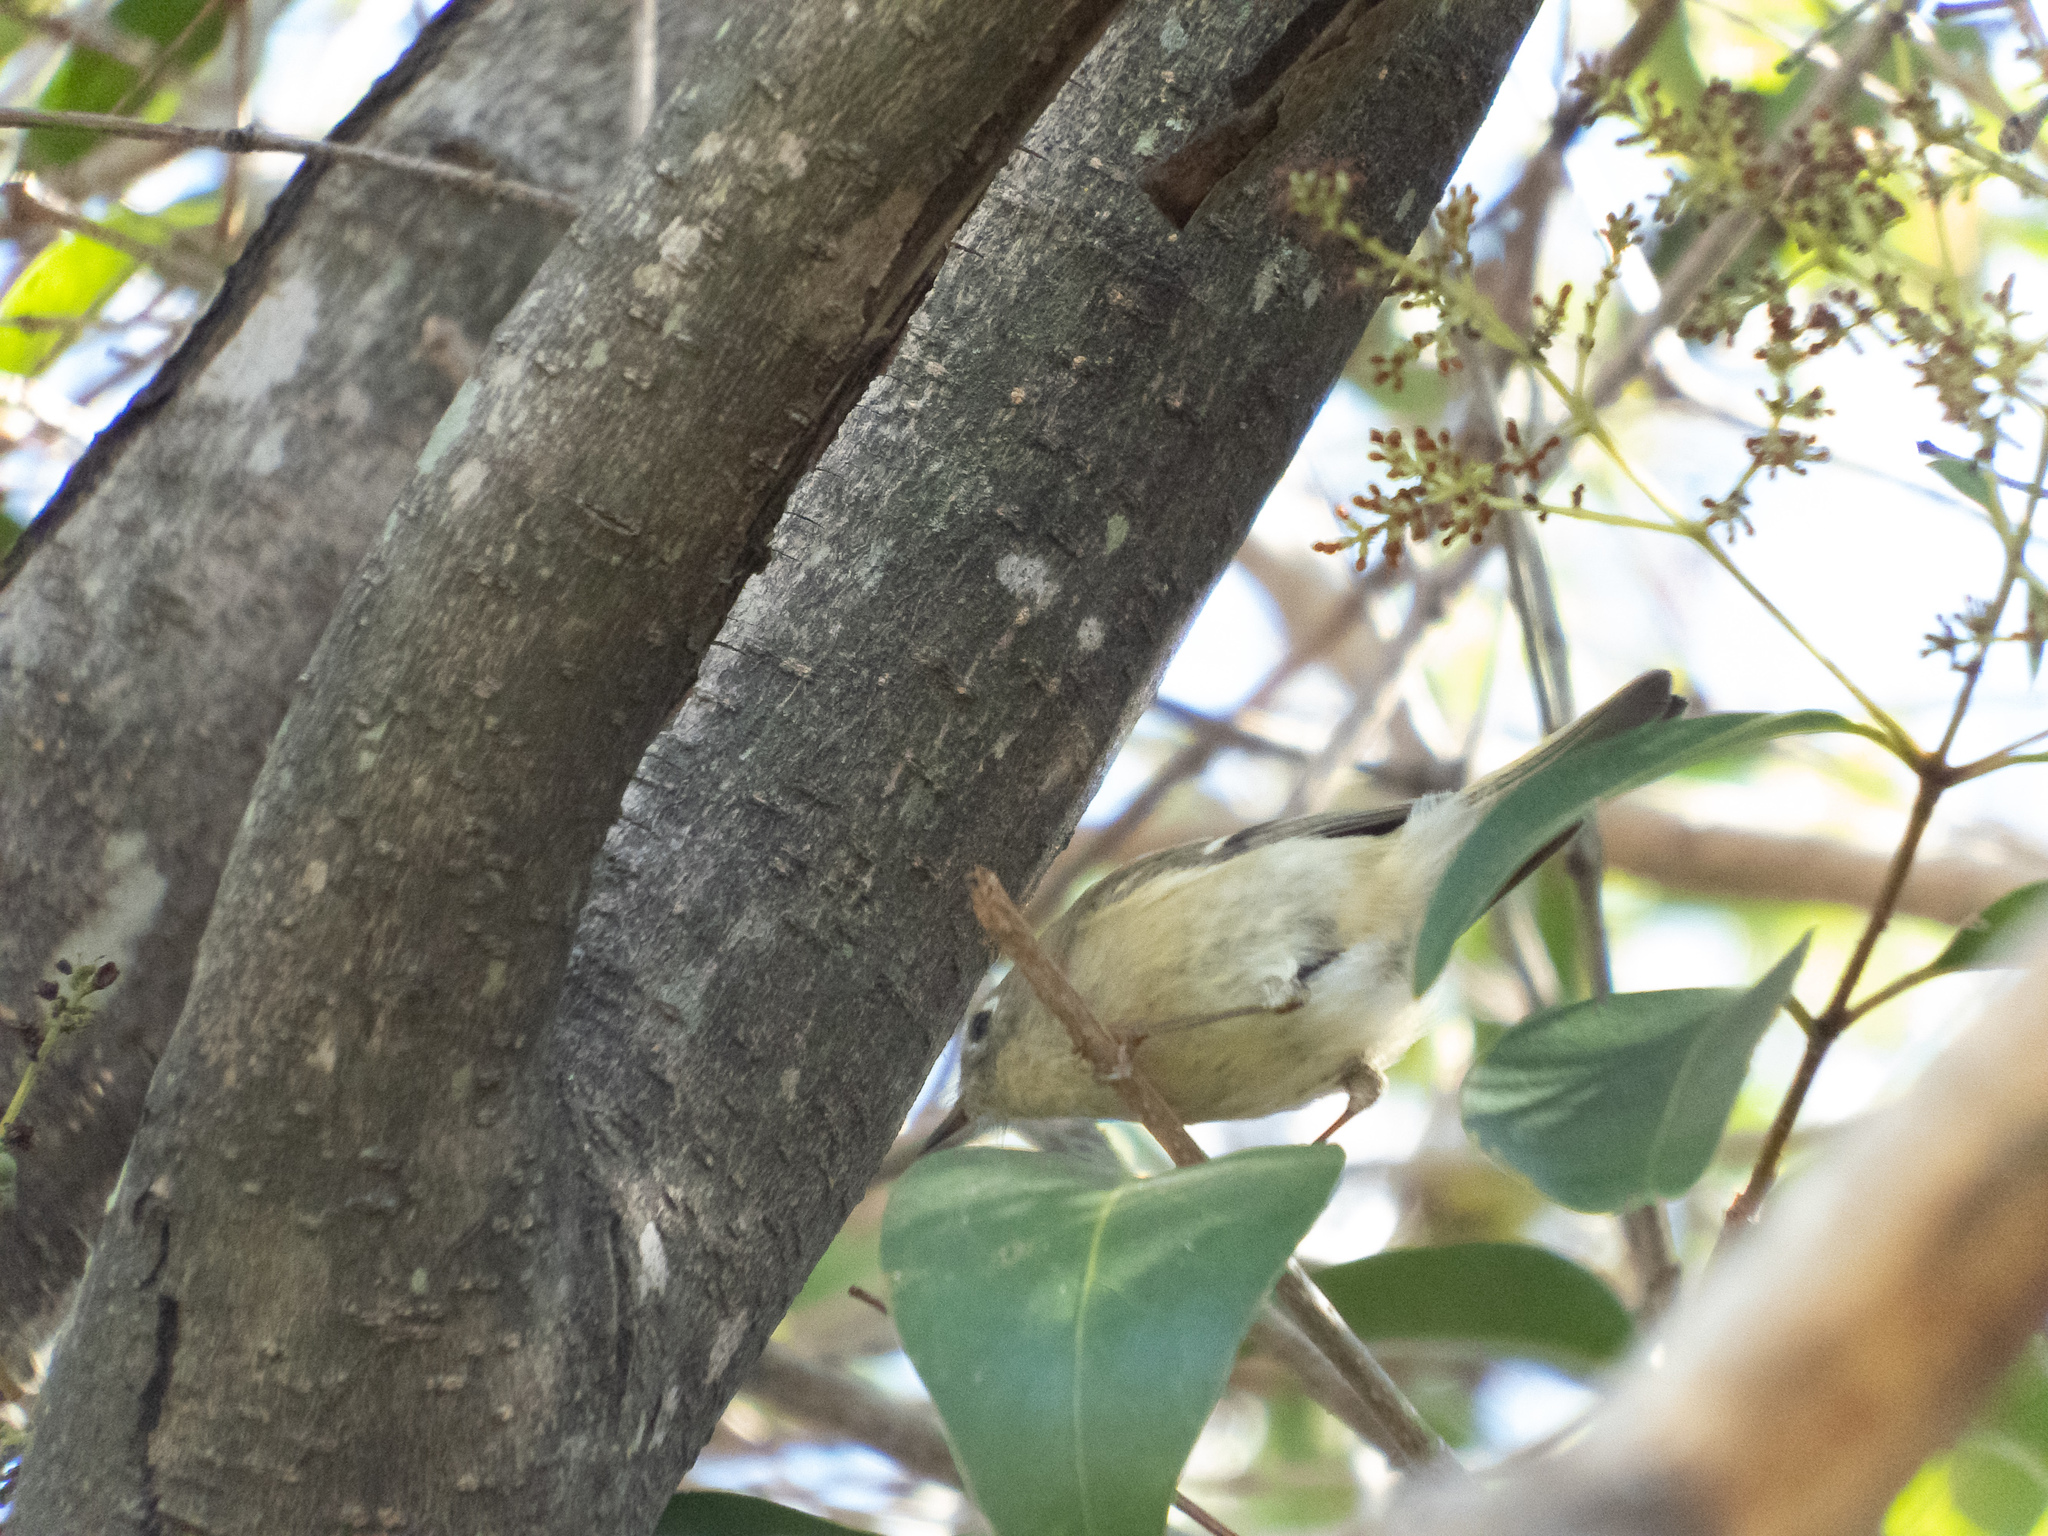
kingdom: Animalia
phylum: Chordata
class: Aves
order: Passeriformes
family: Regulidae
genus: Regulus
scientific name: Regulus calendula
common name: Ruby-crowned kinglet
